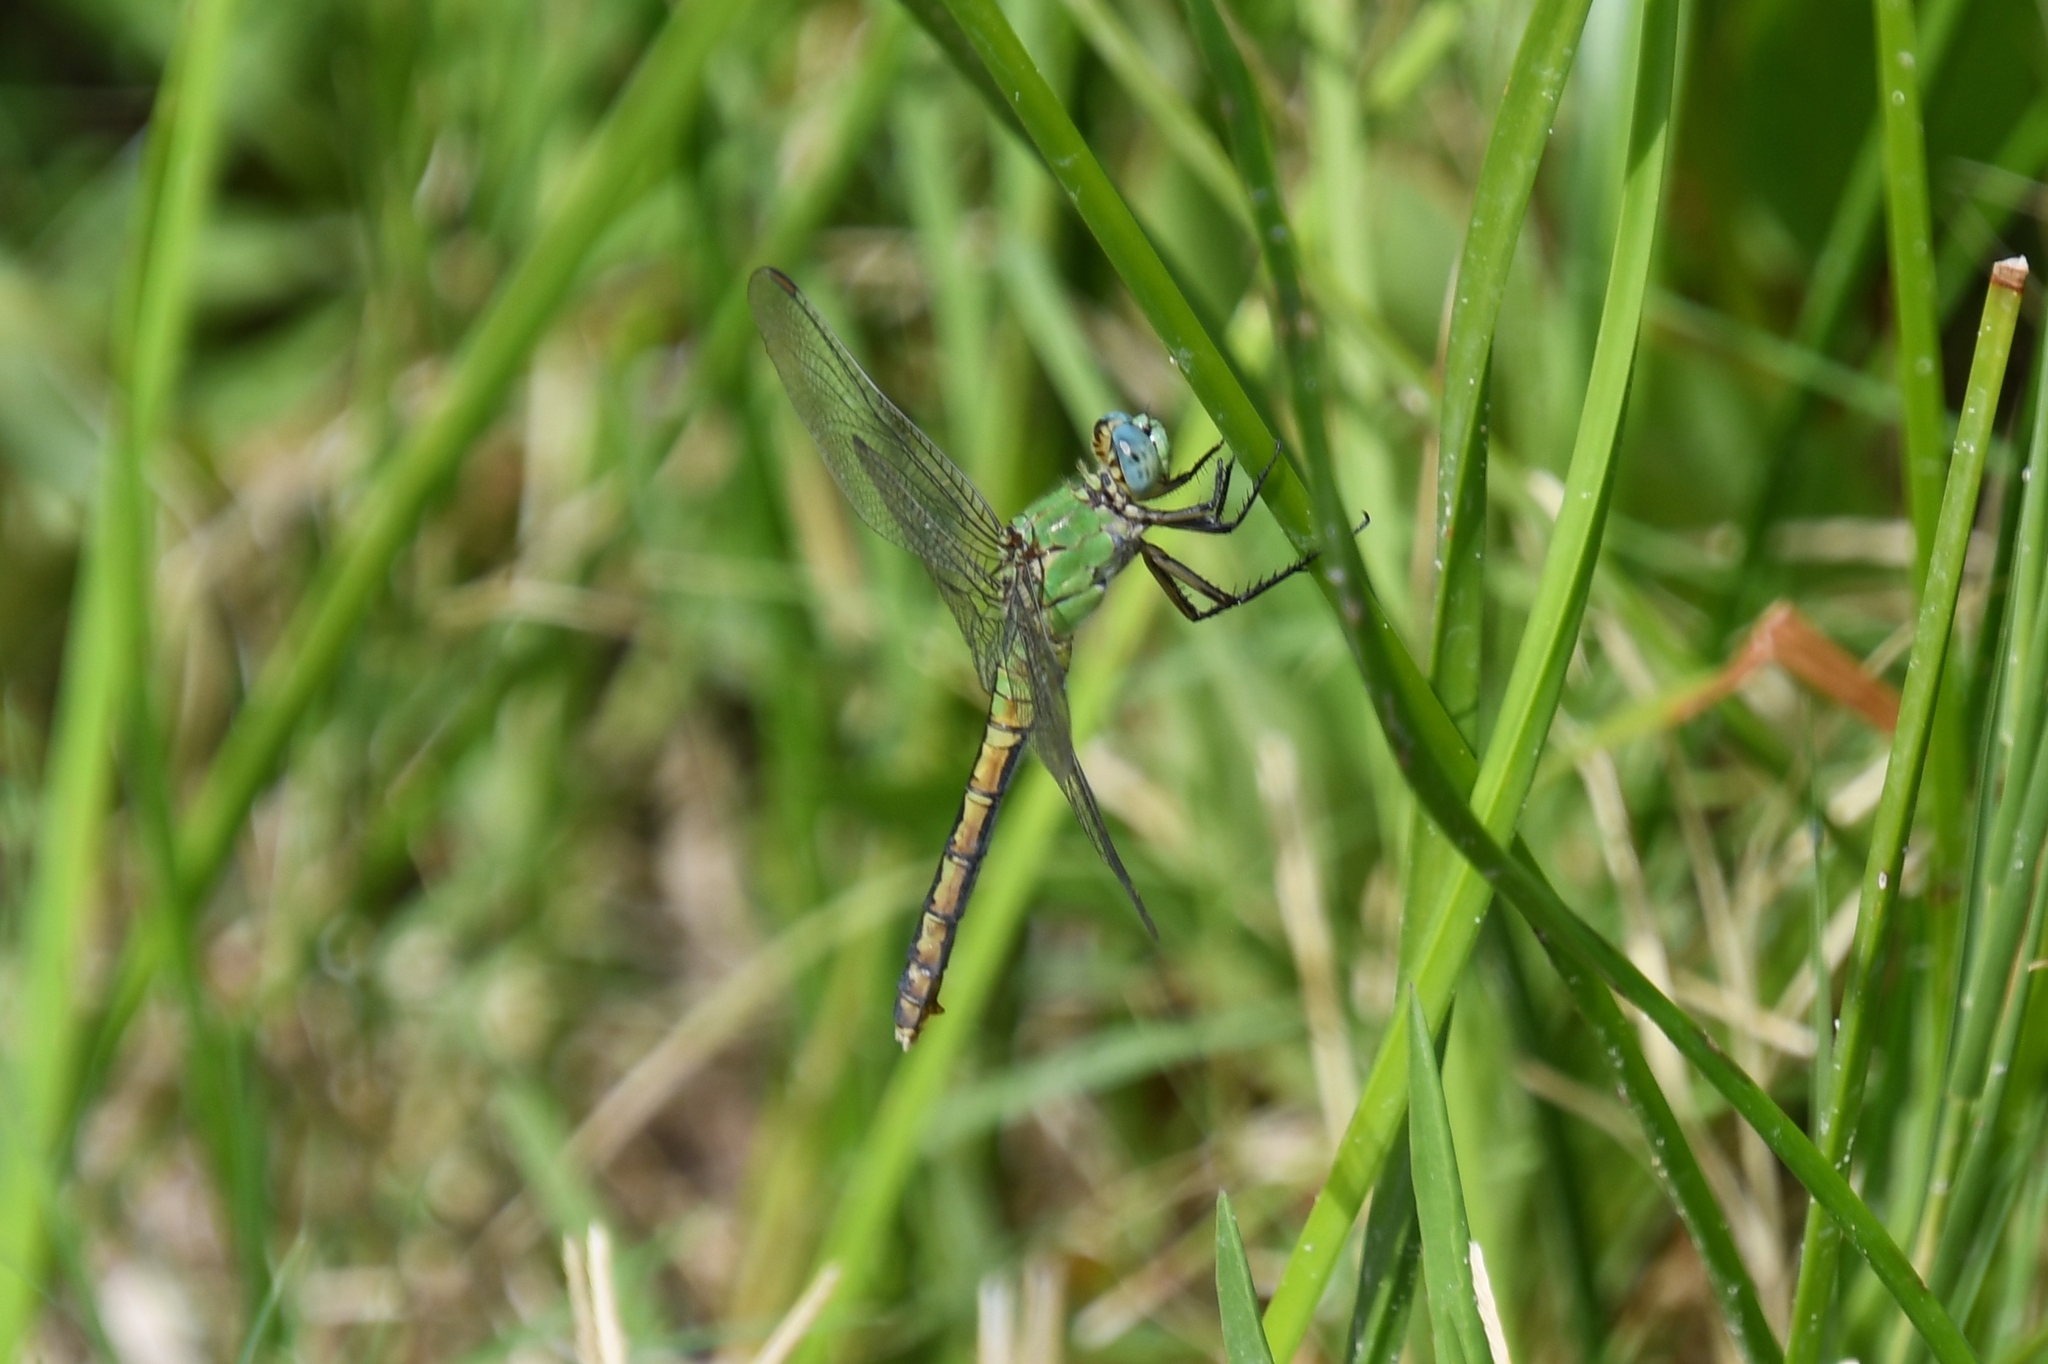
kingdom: Animalia
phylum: Arthropoda
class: Insecta
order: Odonata
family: Libellulidae
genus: Erythemis
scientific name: Erythemis collocata
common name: Western pondhawk
